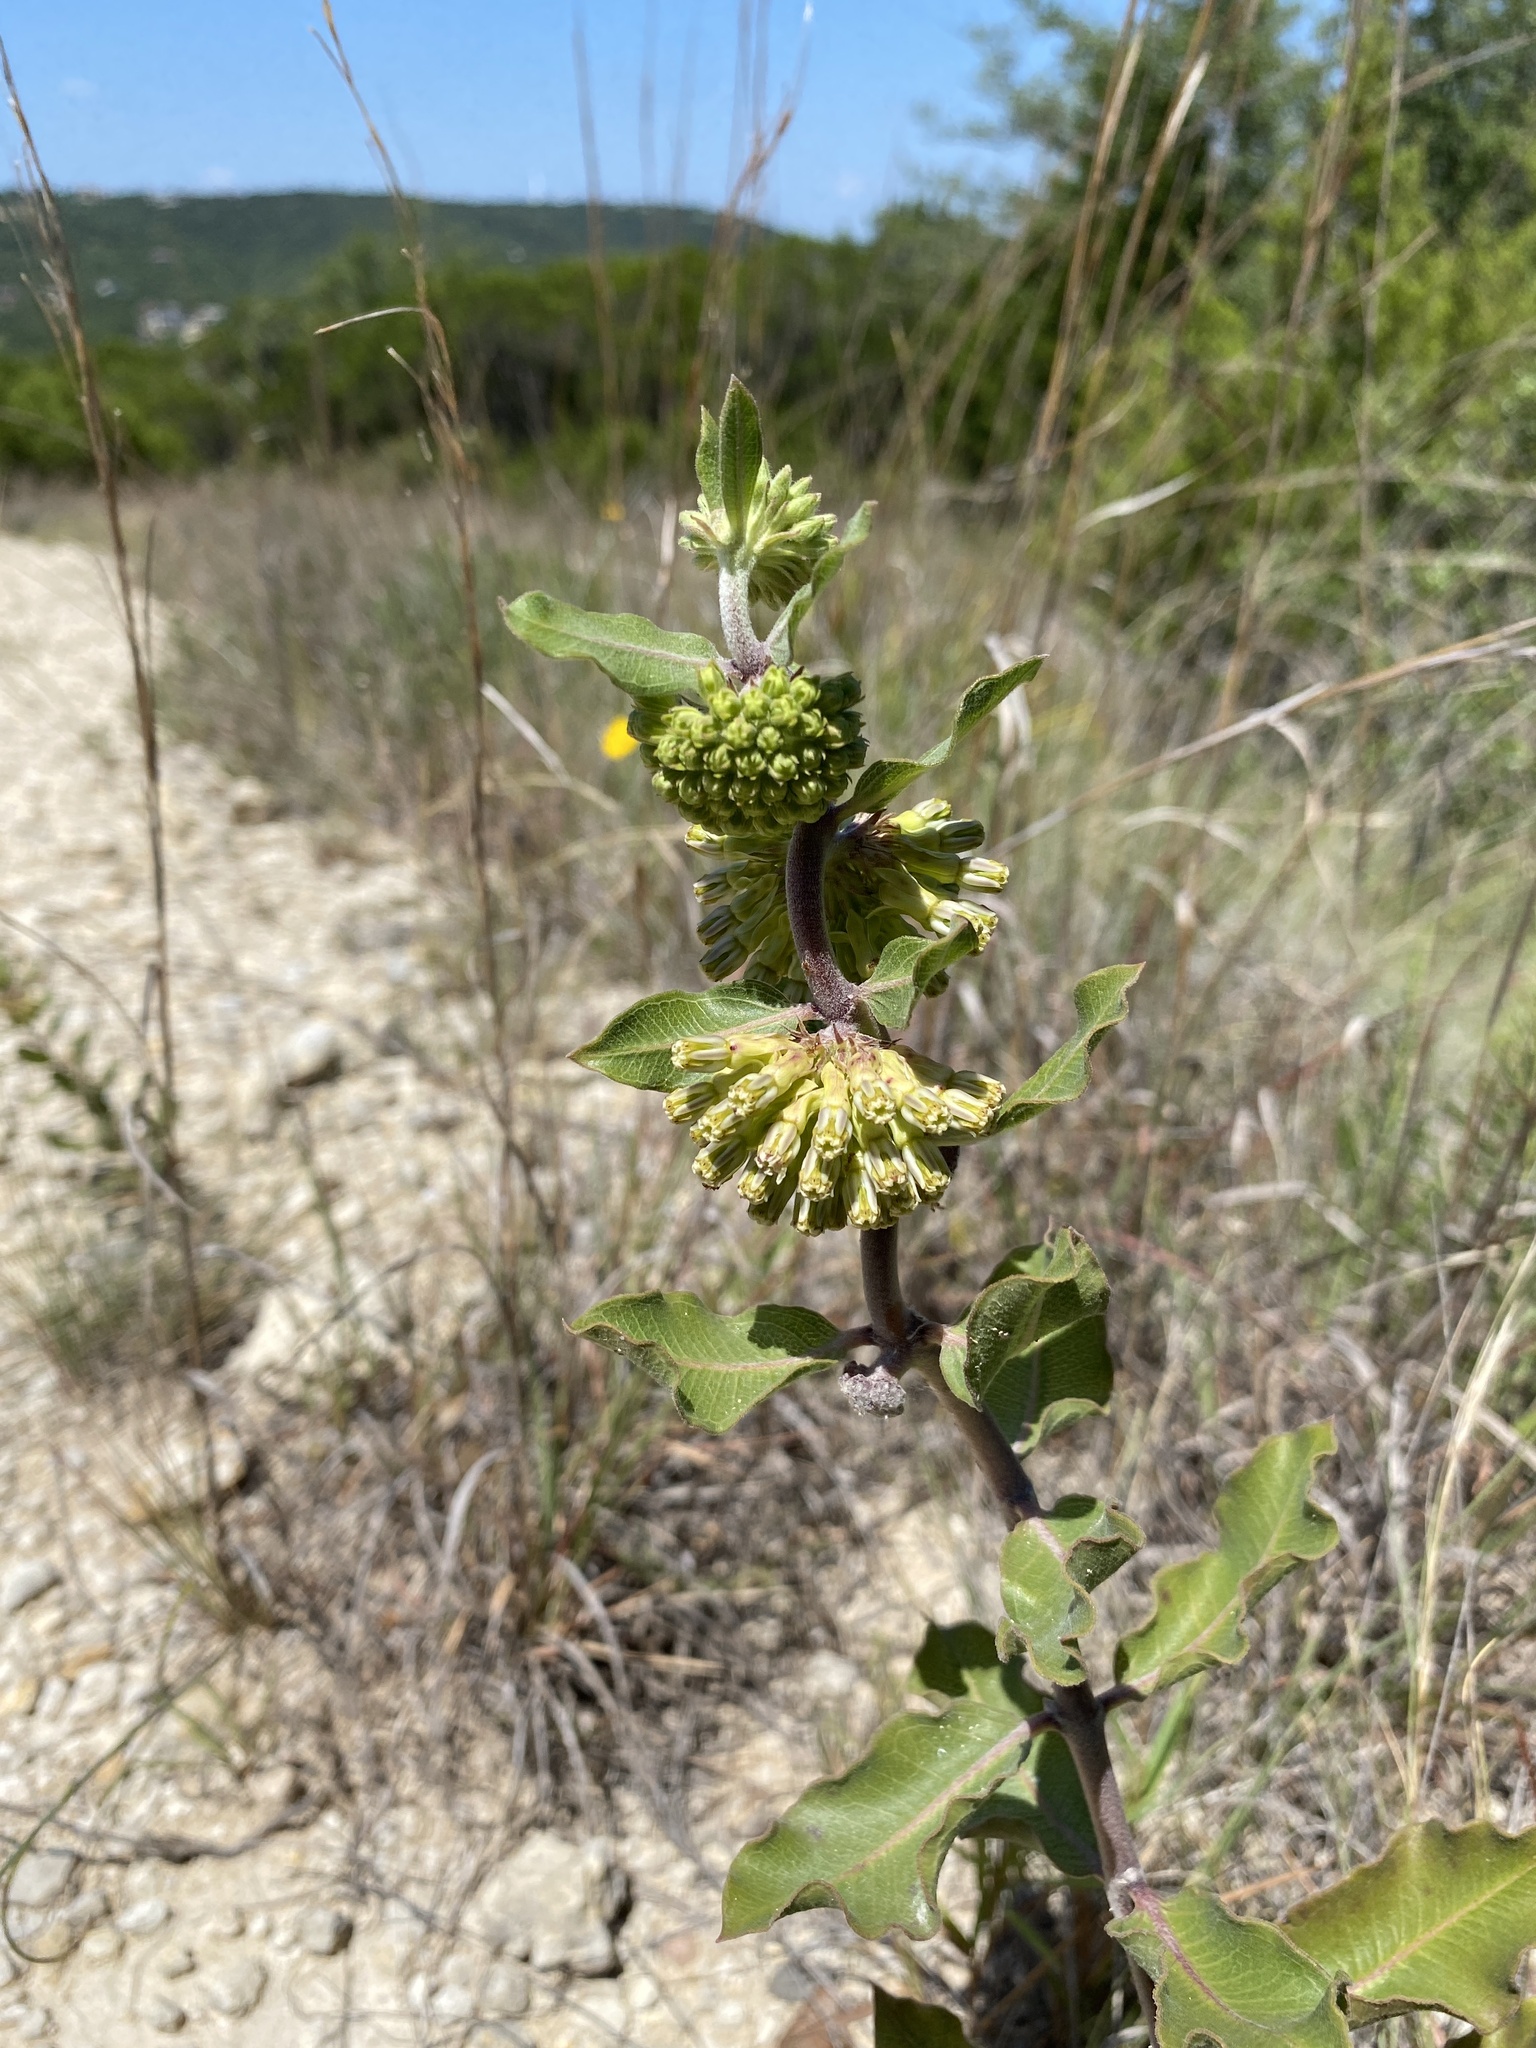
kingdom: Plantae
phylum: Tracheophyta
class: Magnoliopsida
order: Gentianales
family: Apocynaceae
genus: Asclepias
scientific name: Asclepias viridiflora
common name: Green comet milkweed
